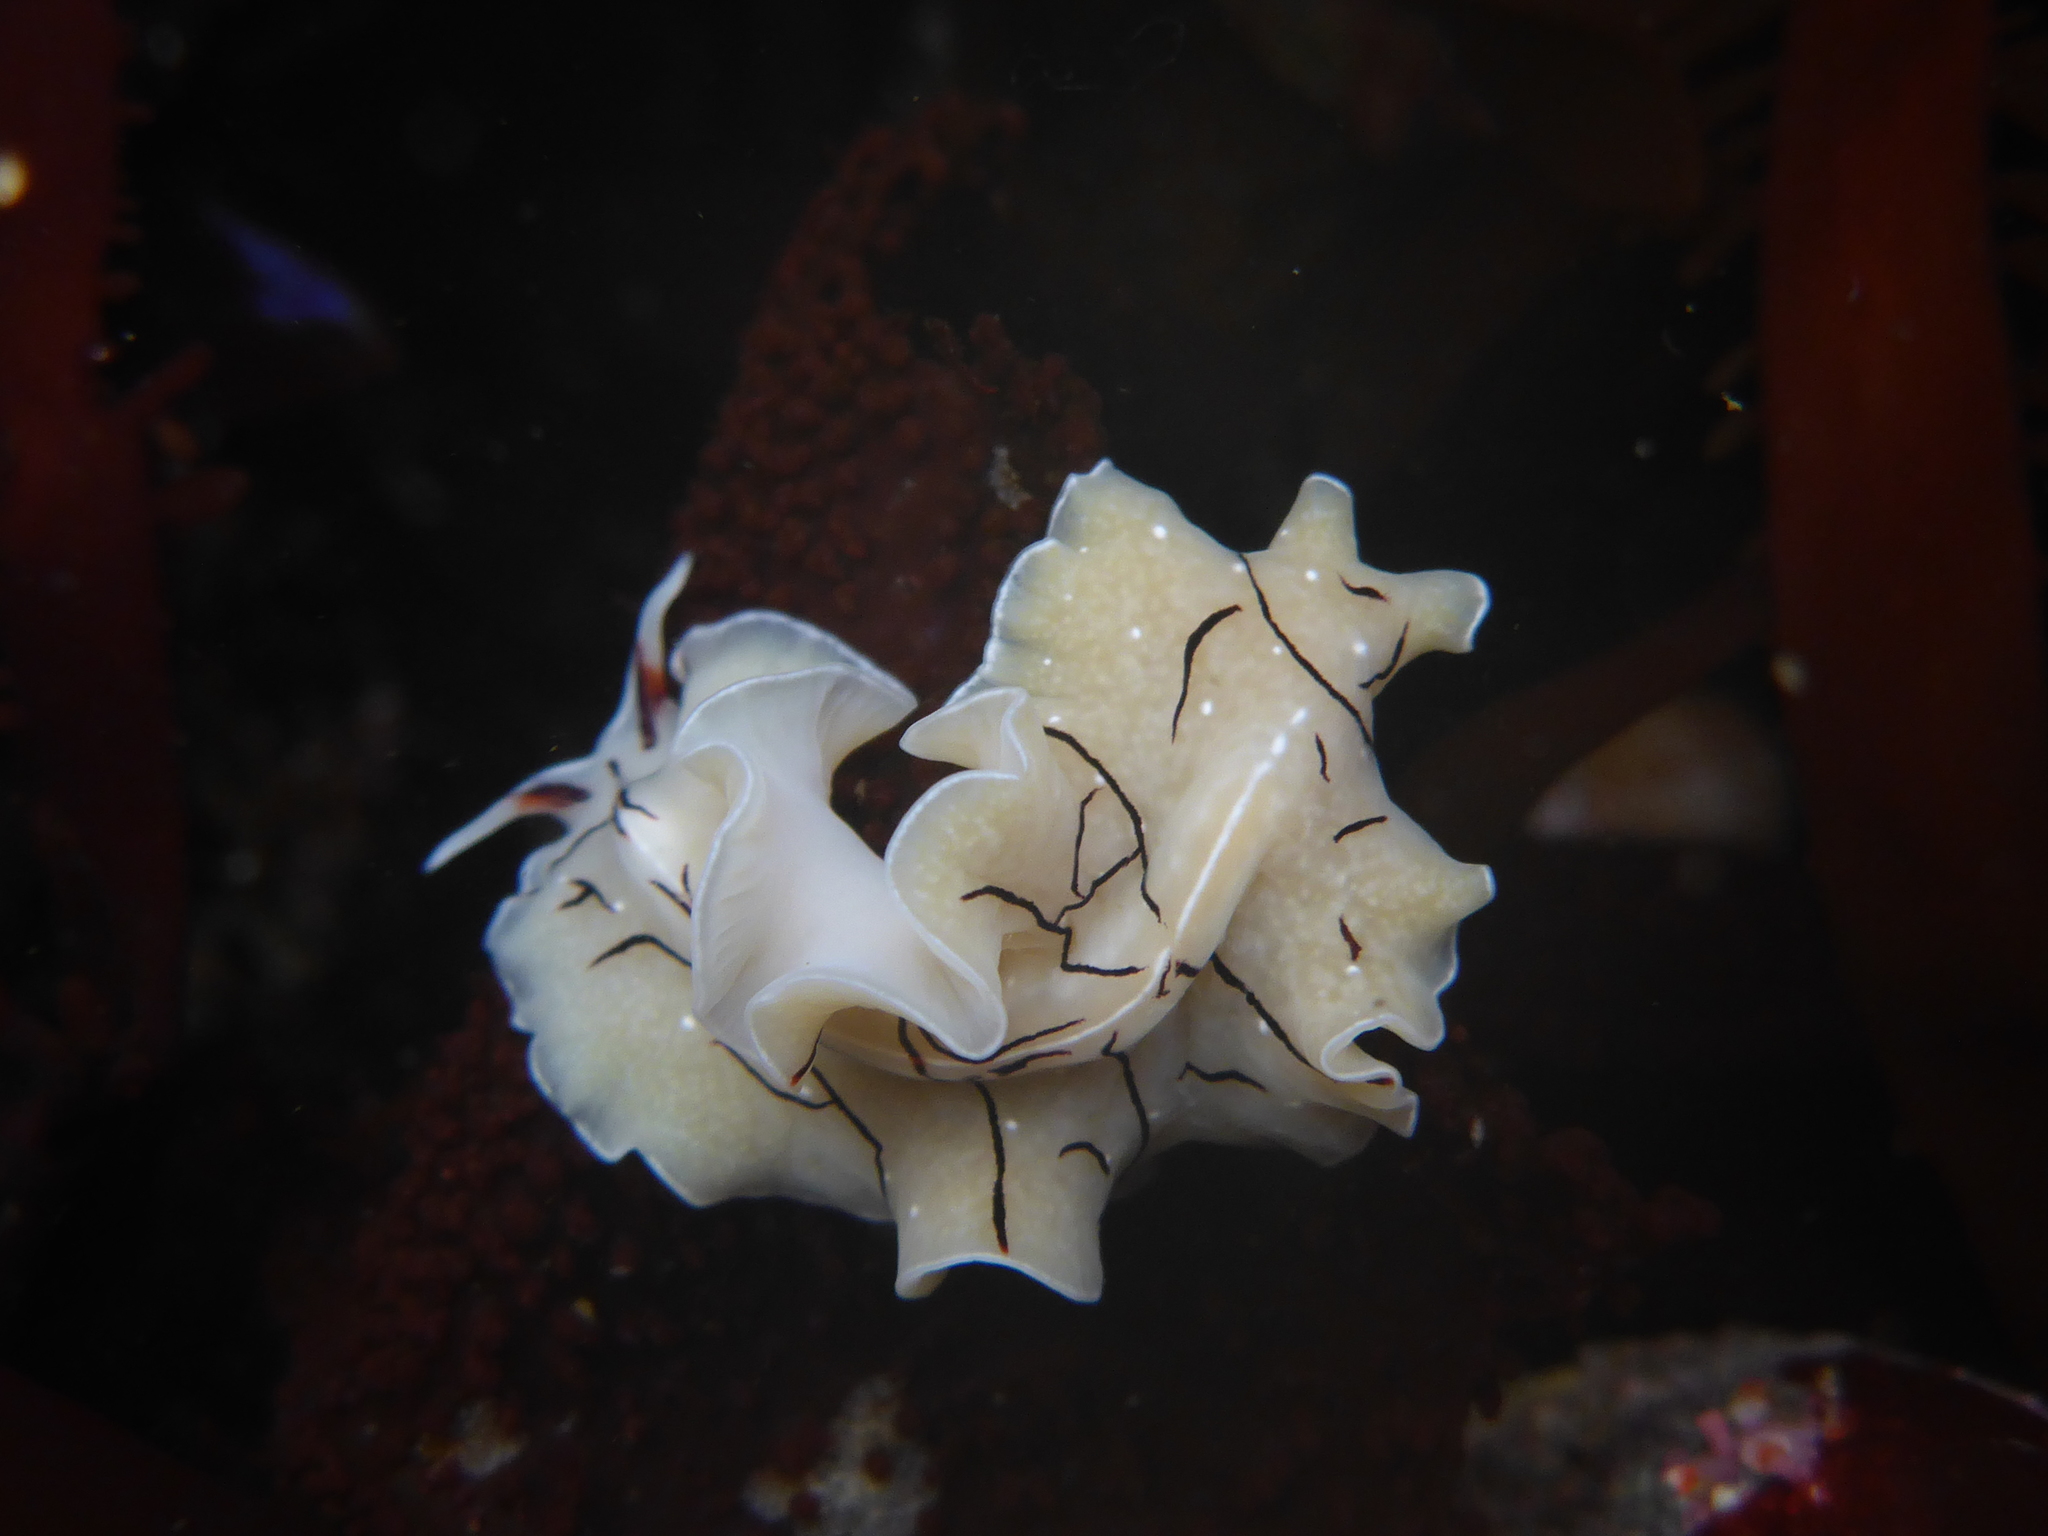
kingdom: Animalia
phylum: Platyhelminthes
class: Turbellaria
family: Euryleptidae
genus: Eurylepta
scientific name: Eurylepta californica
